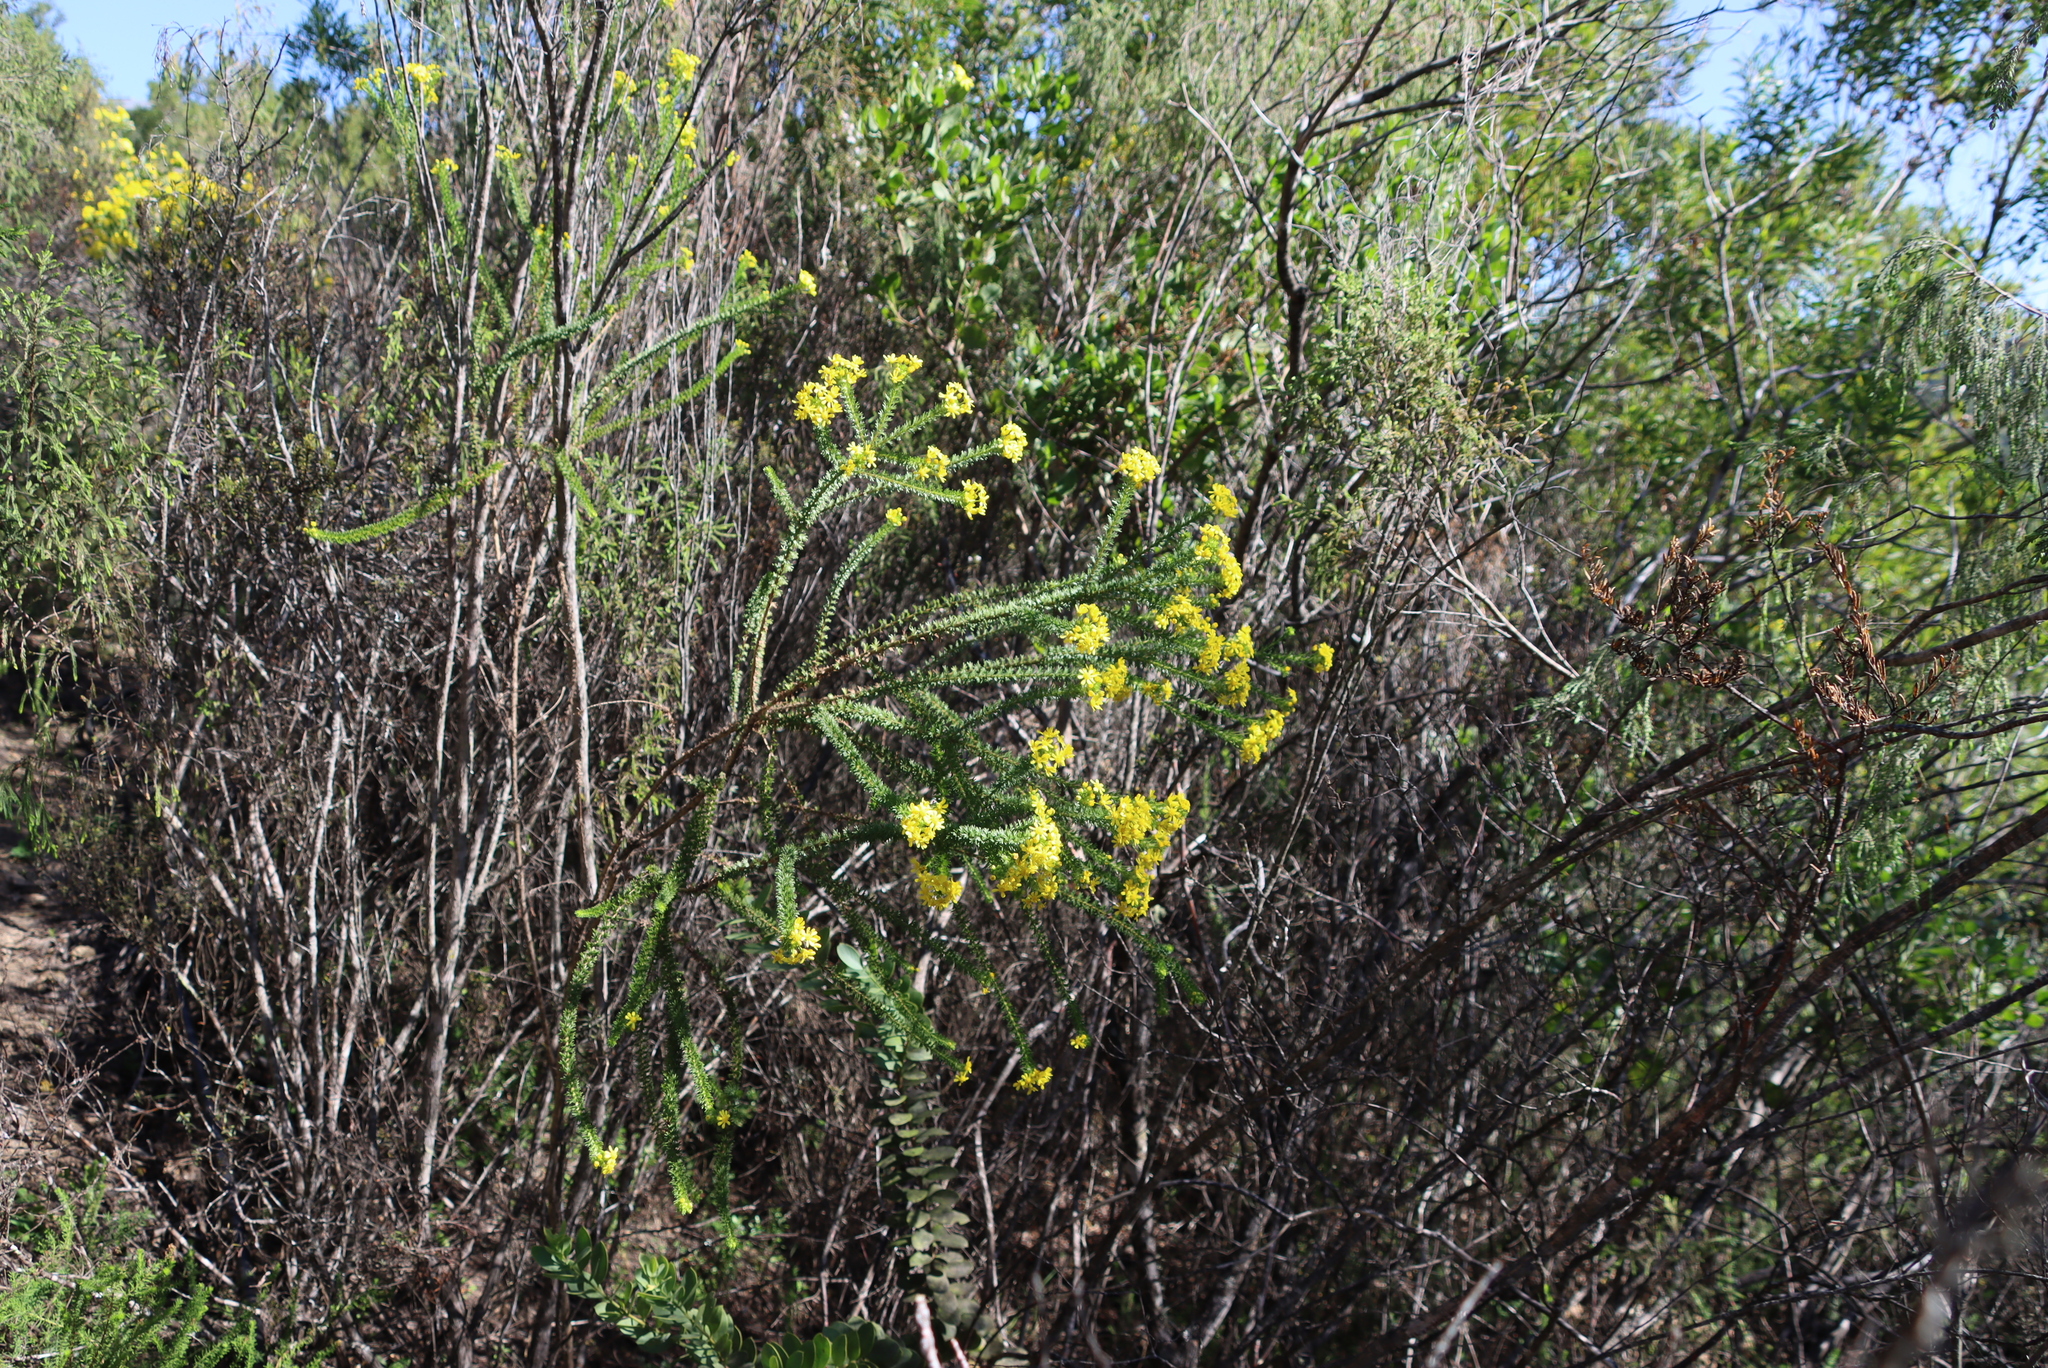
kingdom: Plantae
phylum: Tracheophyta
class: Magnoliopsida
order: Asterales
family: Asteraceae
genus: Euryops
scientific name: Euryops virgineus
